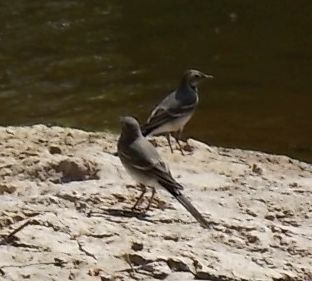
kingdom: Animalia
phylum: Chordata
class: Aves
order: Passeriformes
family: Motacillidae
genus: Motacilla
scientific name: Motacilla alba
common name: White wagtail
